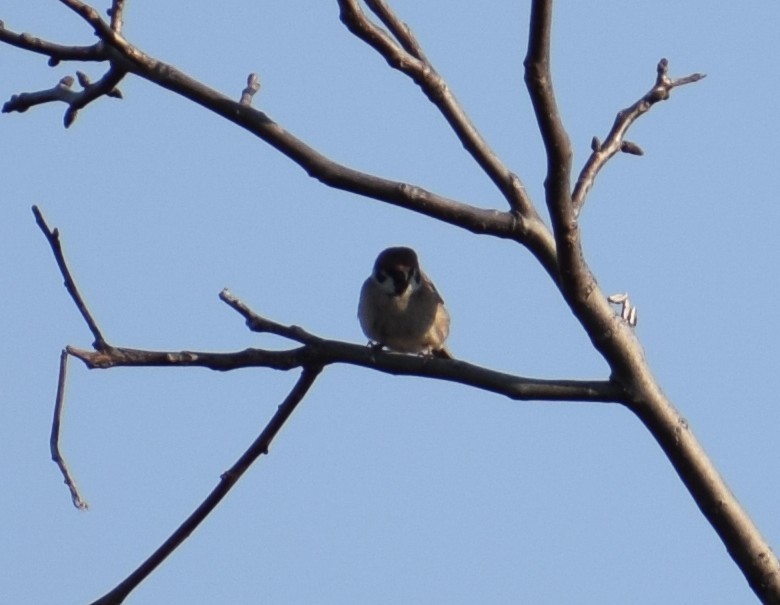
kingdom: Animalia
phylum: Chordata
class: Aves
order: Passeriformes
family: Passeridae
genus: Passer
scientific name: Passer montanus
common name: Eurasian tree sparrow
